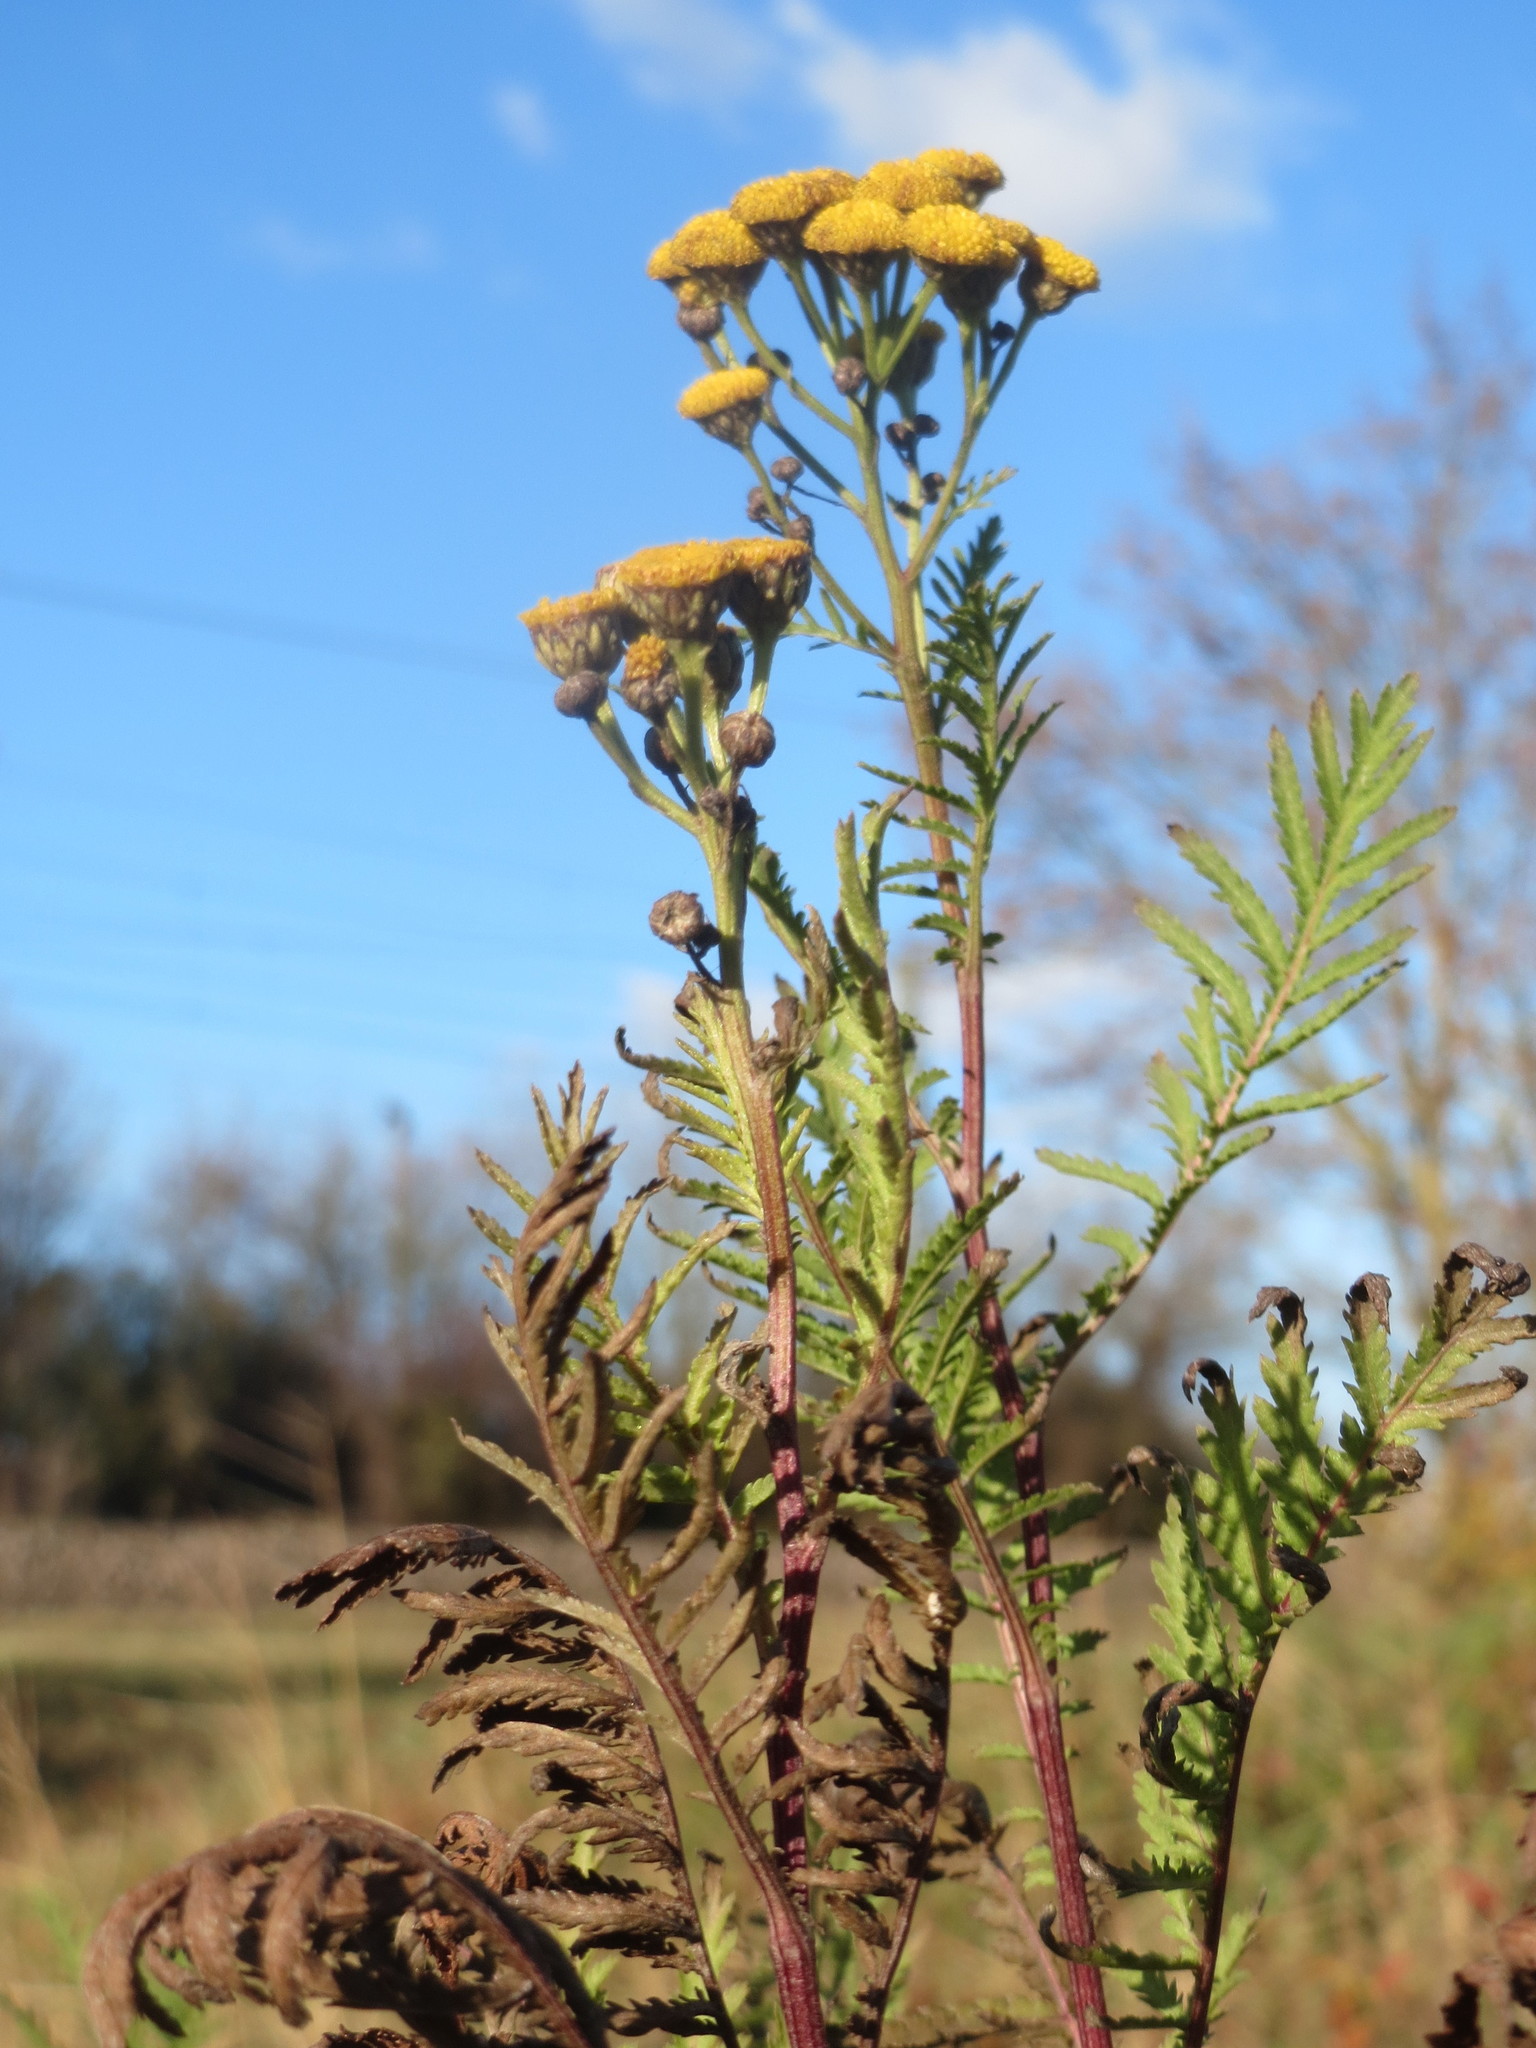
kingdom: Plantae
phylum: Tracheophyta
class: Magnoliopsida
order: Asterales
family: Asteraceae
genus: Tanacetum
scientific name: Tanacetum vulgare
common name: Common tansy
